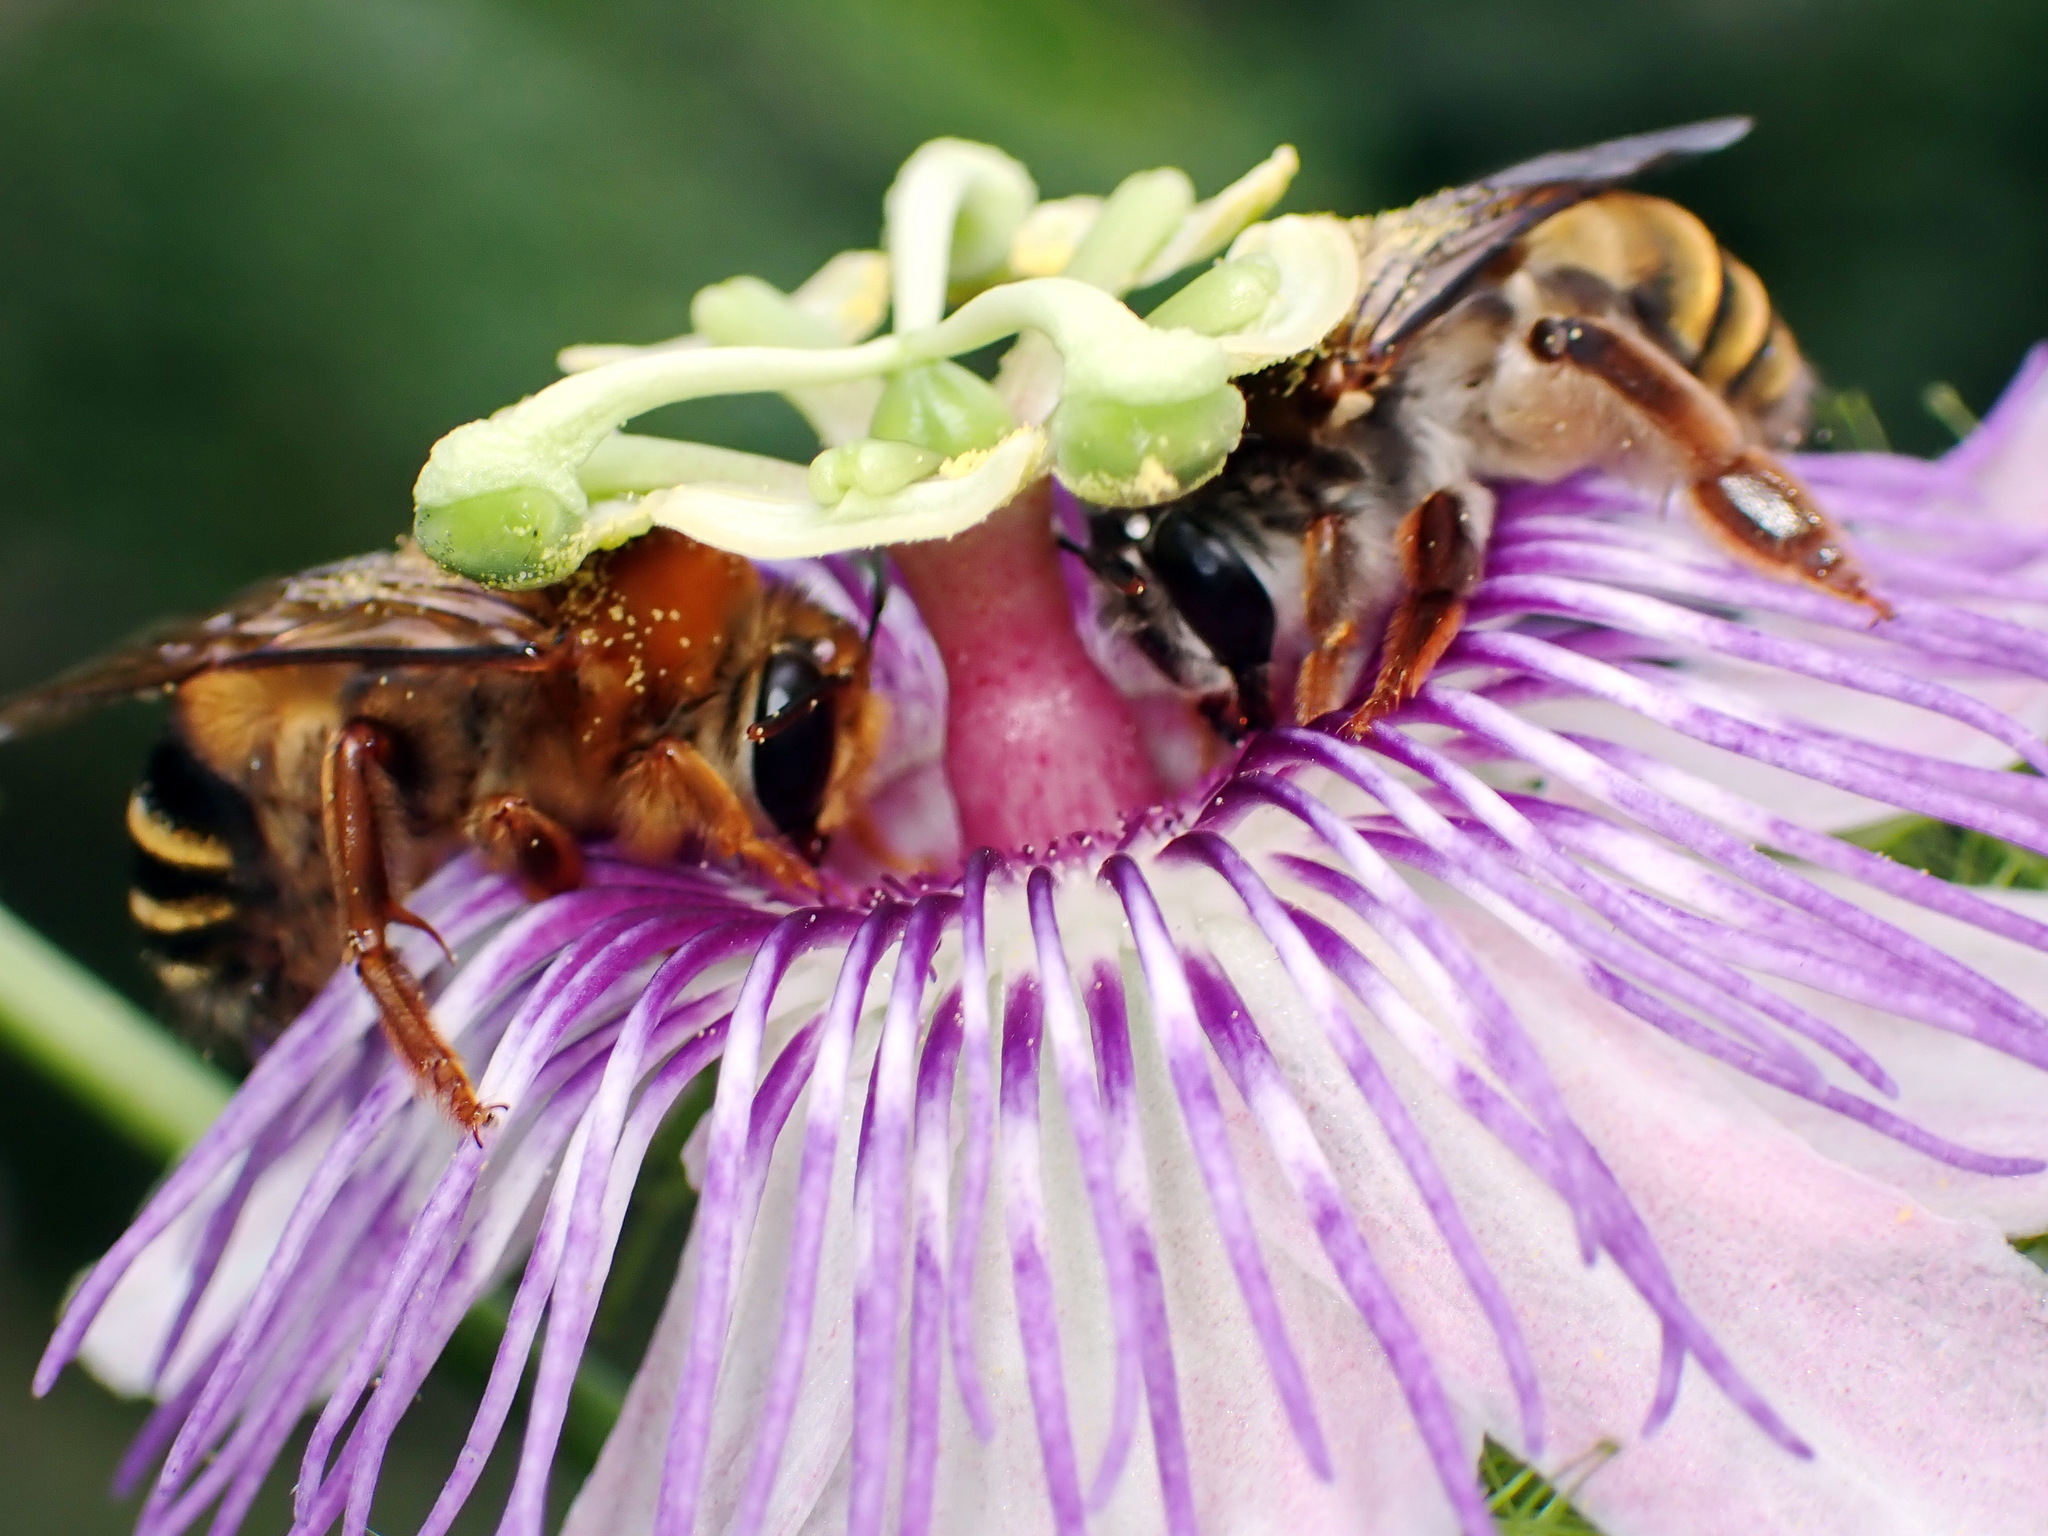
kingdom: Animalia
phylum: Arthropoda
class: Insecta
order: Hymenoptera
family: Colletidae
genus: Ptiloglossa
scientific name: Ptiloglossa mexicana
